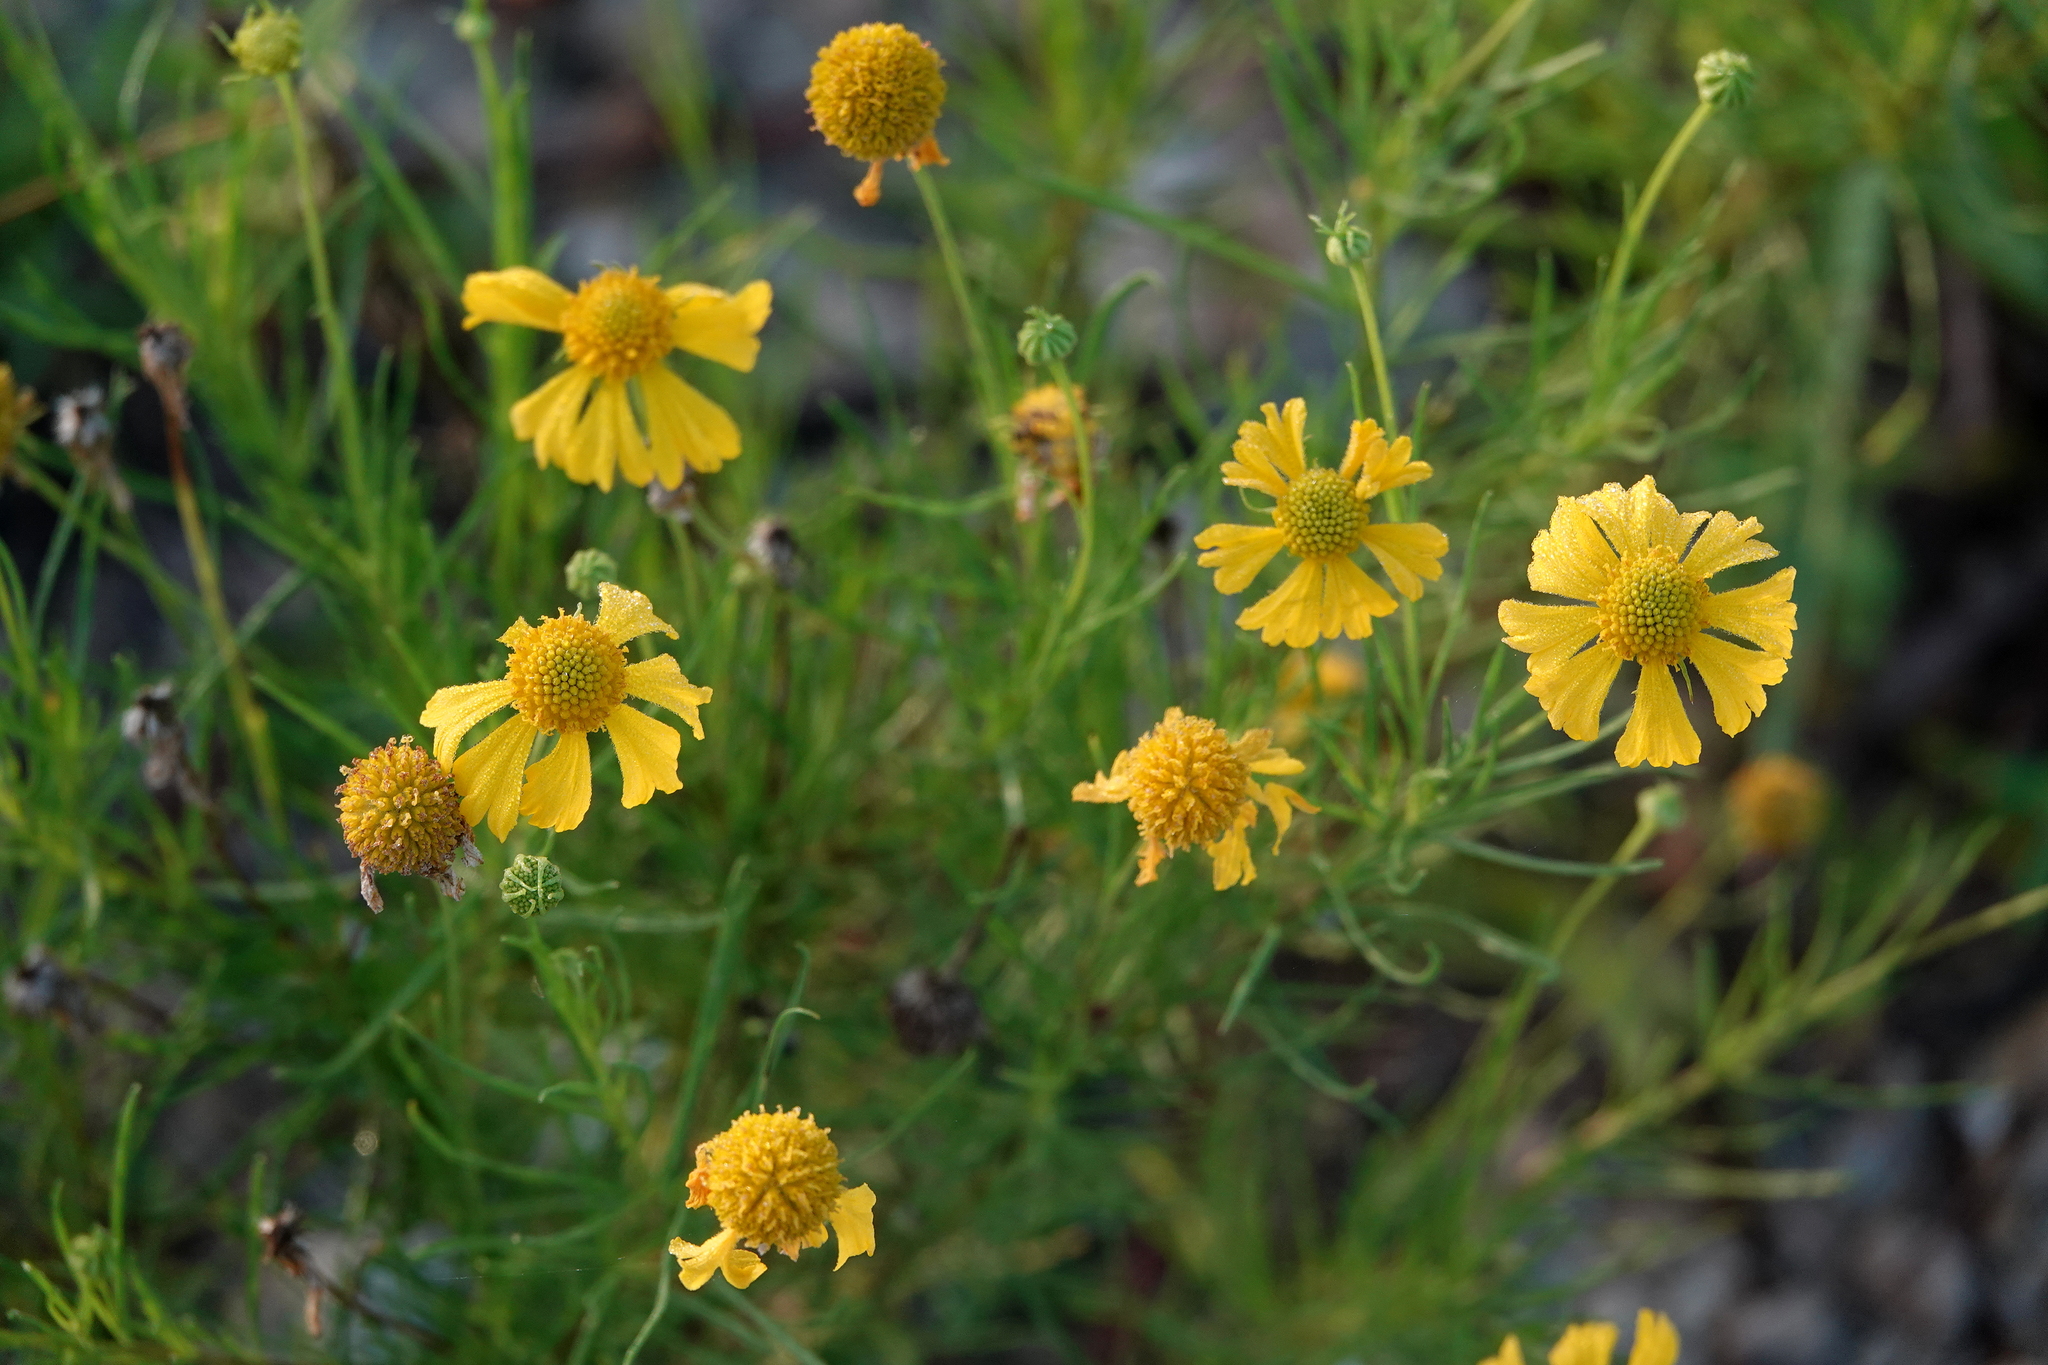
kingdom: Plantae
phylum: Tracheophyta
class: Magnoliopsida
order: Asterales
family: Asteraceae
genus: Helenium
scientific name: Helenium amarum
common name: Bitter sneezeweed
